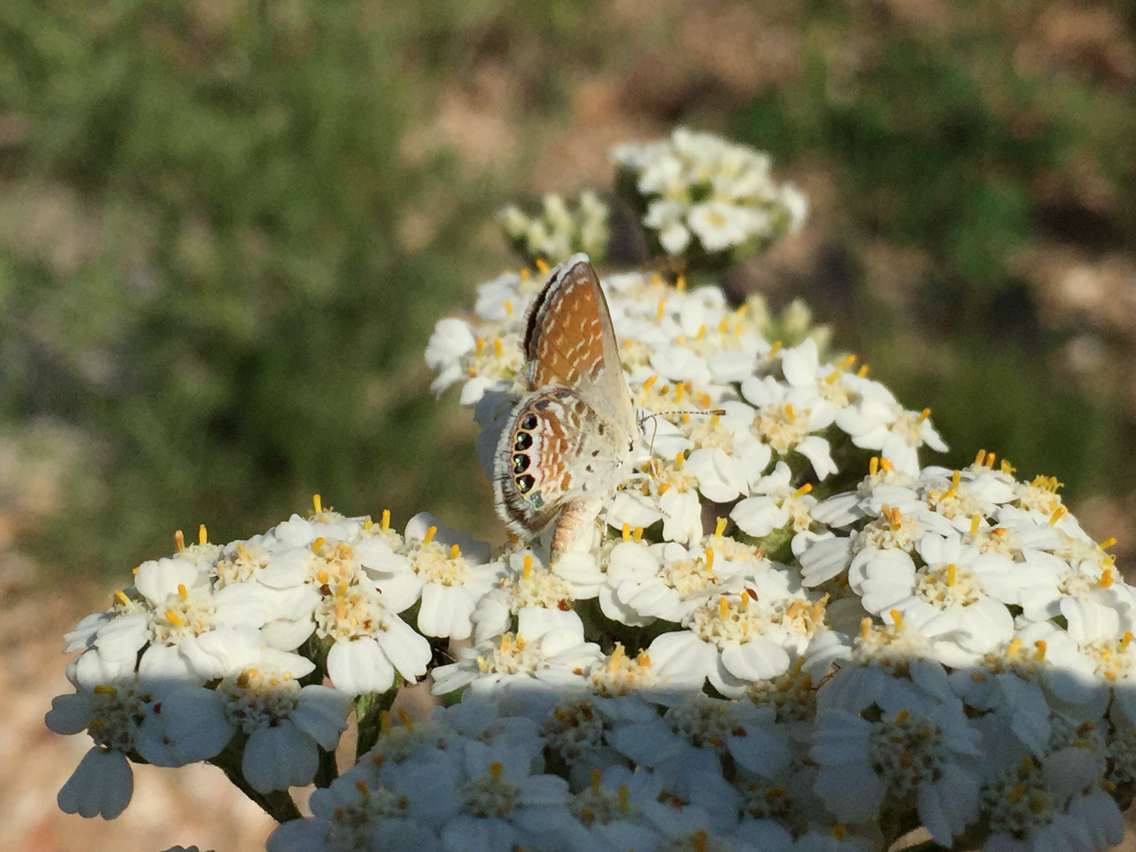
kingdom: Animalia
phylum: Arthropoda
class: Insecta
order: Lepidoptera
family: Lycaenidae
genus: Brephidium
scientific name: Brephidium exilis
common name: Pygmy blue
